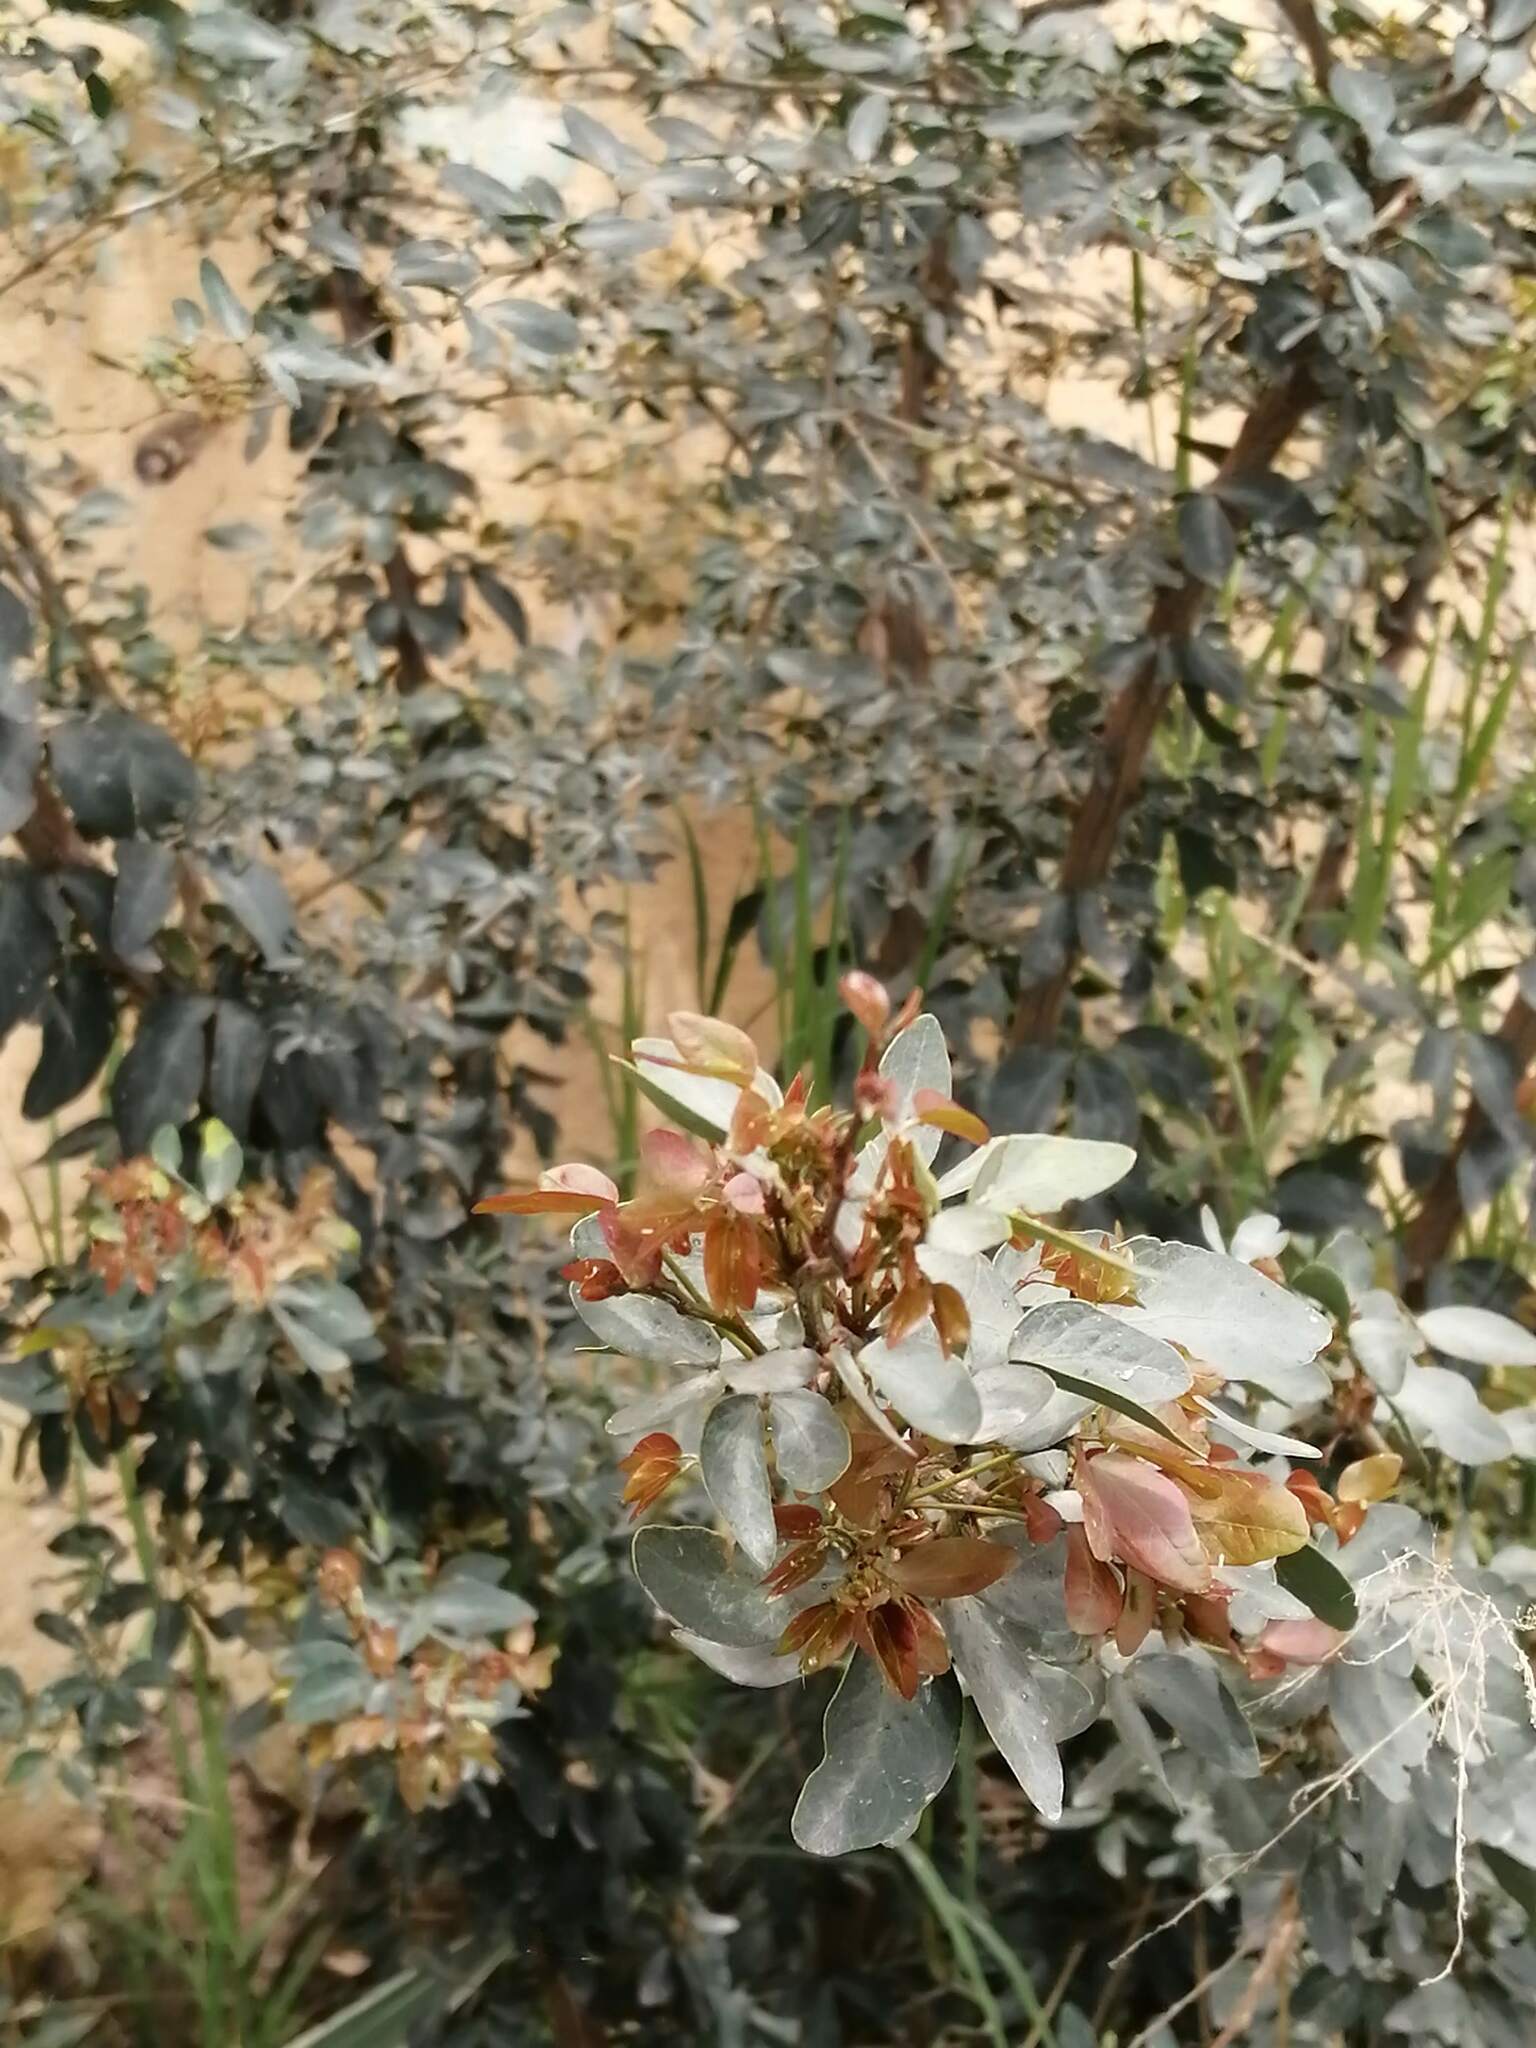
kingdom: Plantae
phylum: Tracheophyta
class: Magnoliopsida
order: Fabales
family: Fabaceae
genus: Pithecellobium
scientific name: Pithecellobium dulce
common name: Monkeypod
